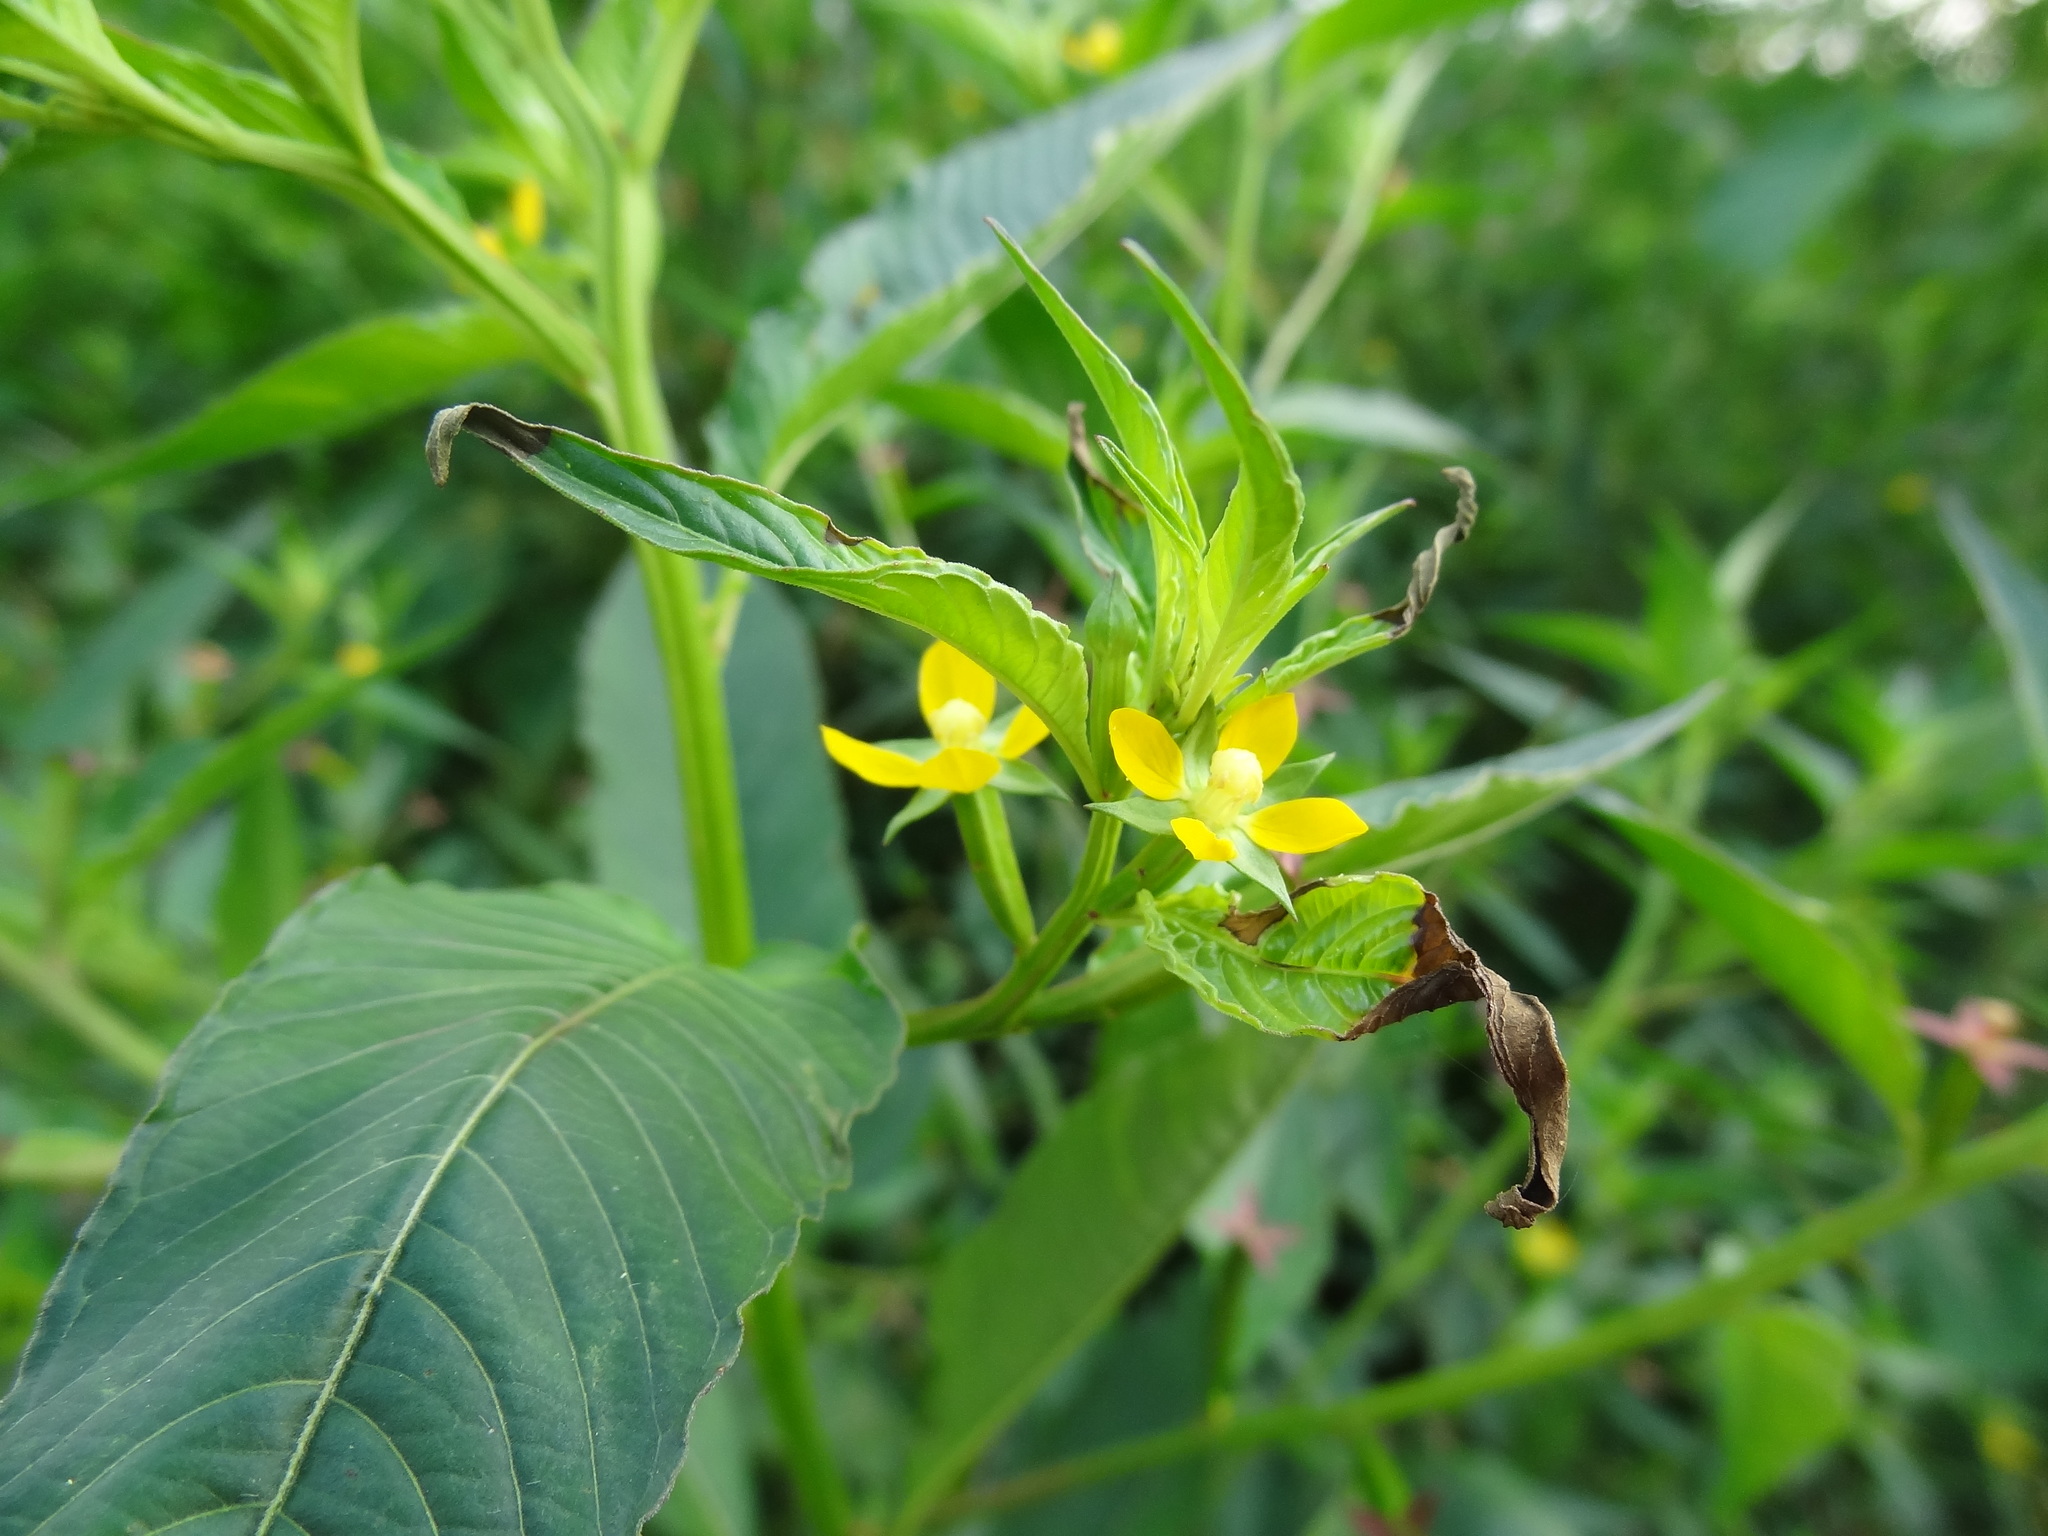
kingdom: Plantae
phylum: Tracheophyta
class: Magnoliopsida
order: Myrtales
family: Onagraceae
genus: Ludwigia
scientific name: Ludwigia hyssopifolia
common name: Linear leaf water primrose
